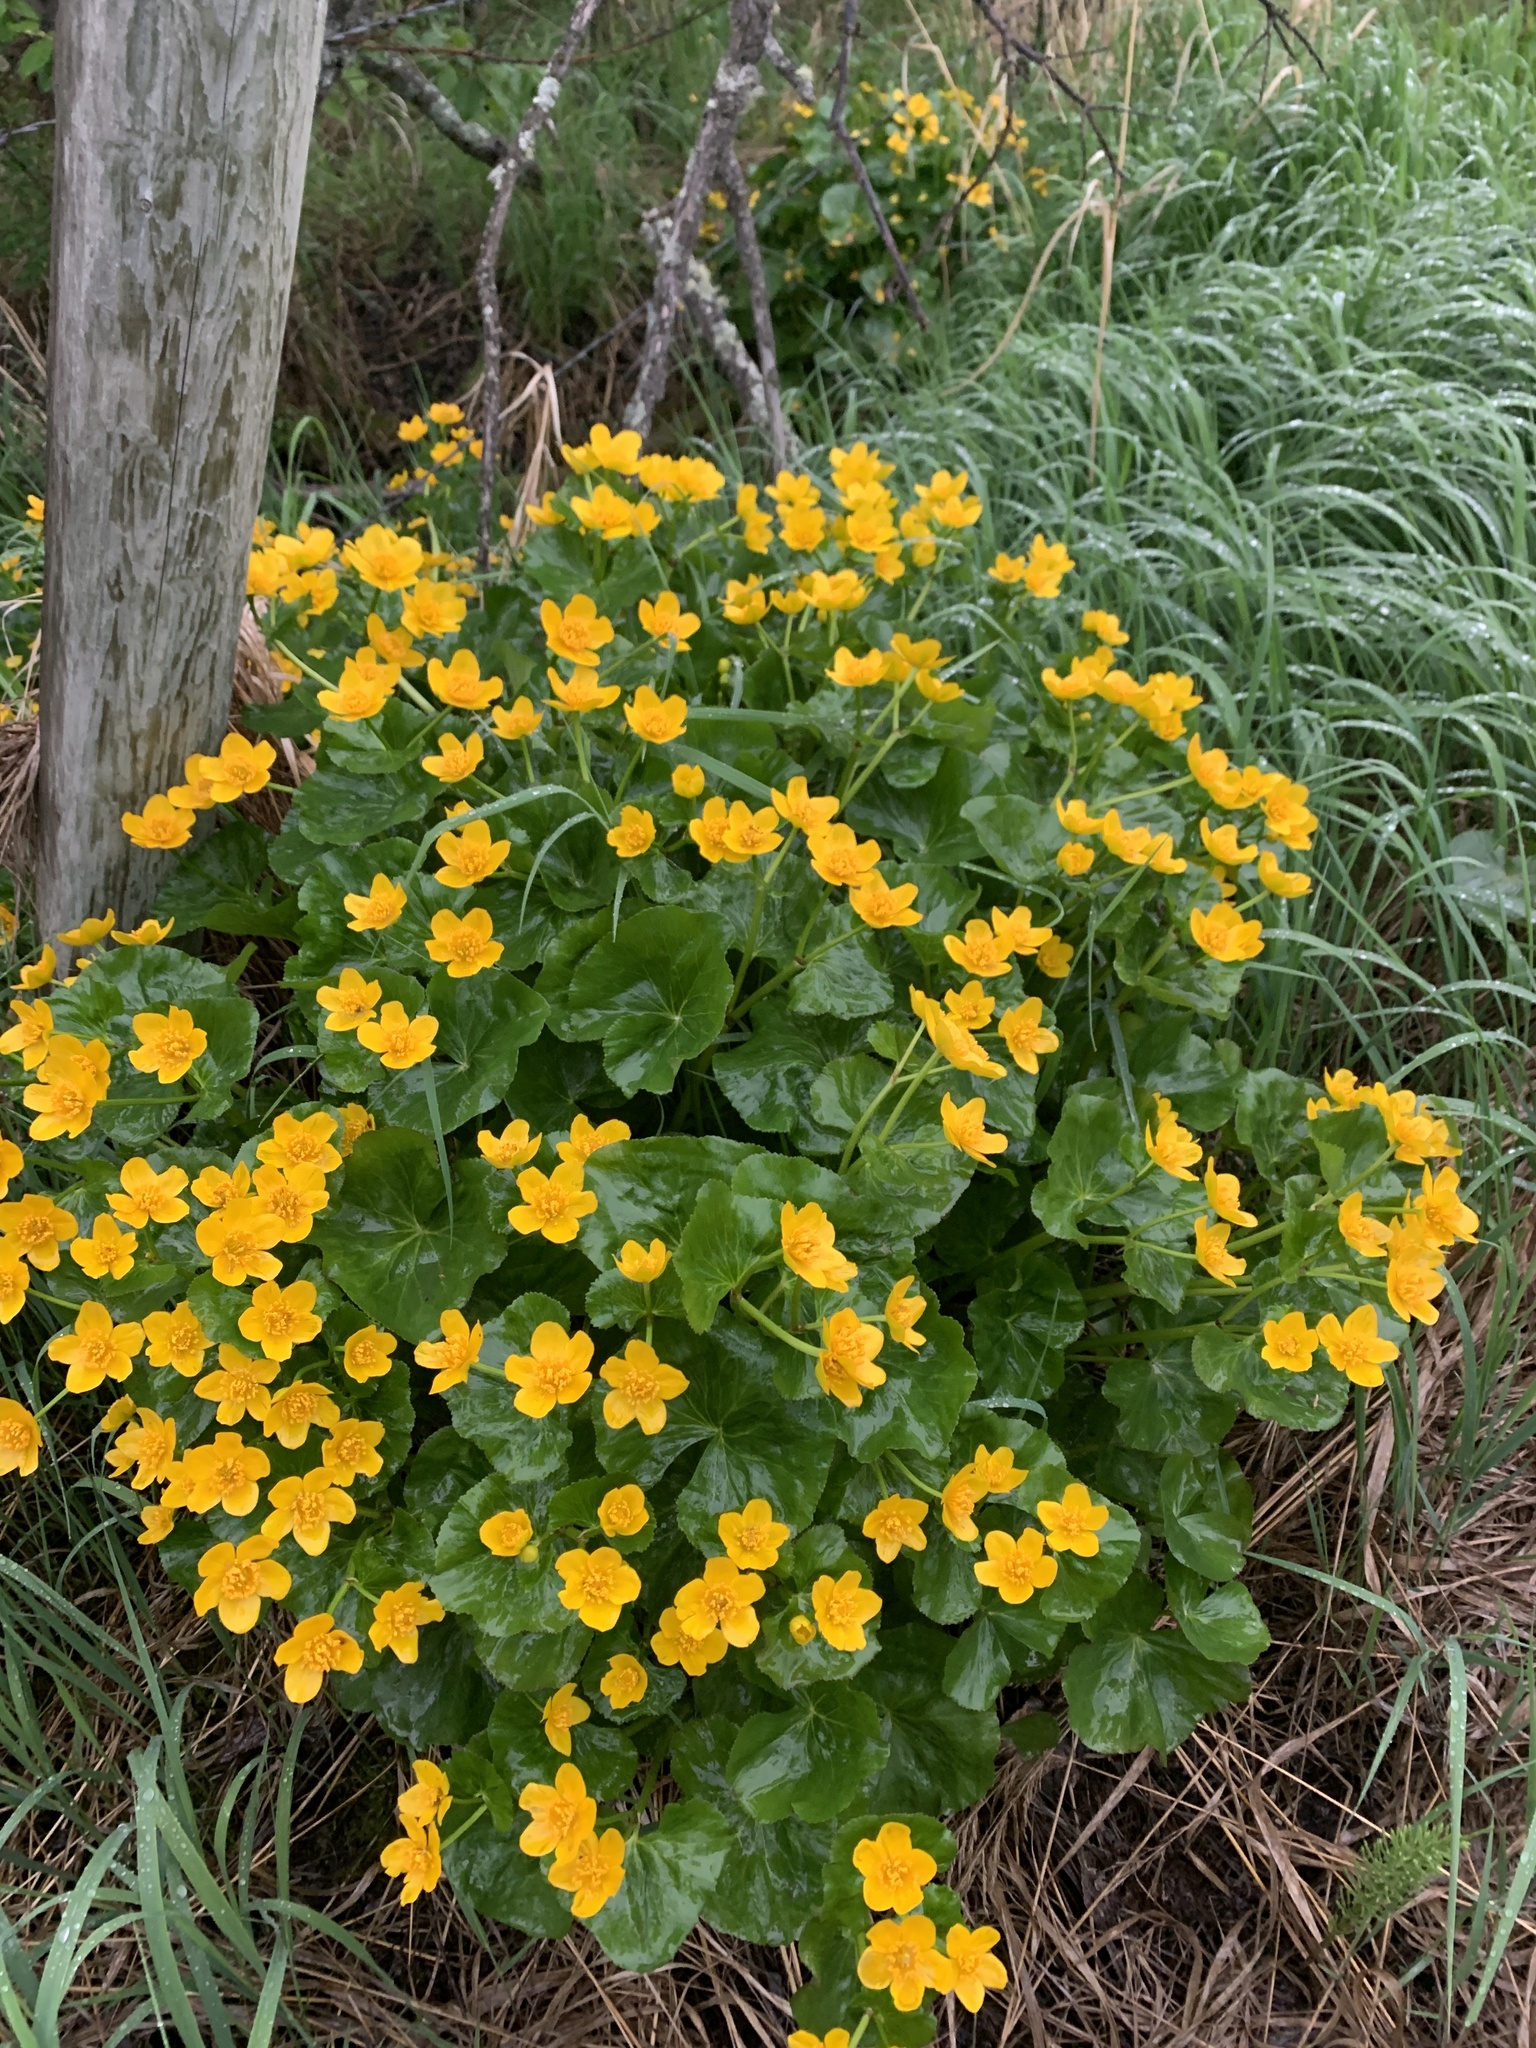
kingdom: Plantae
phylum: Tracheophyta
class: Magnoliopsida
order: Ranunculales
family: Ranunculaceae
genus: Caltha
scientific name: Caltha palustris
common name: Marsh marigold
